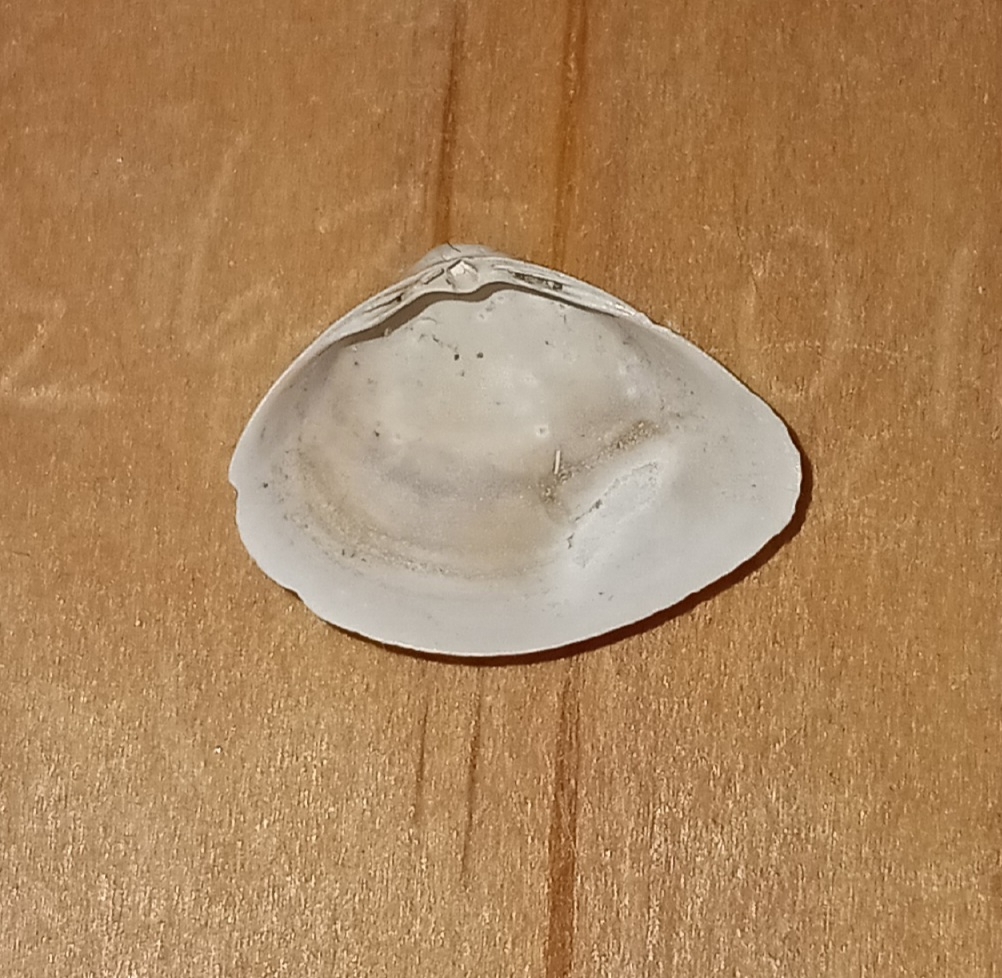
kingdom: Animalia
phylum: Mollusca
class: Bivalvia
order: Venerida
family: Mactridae
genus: Mulinia
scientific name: Mulinia lateralis
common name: Dwarf surfclam
